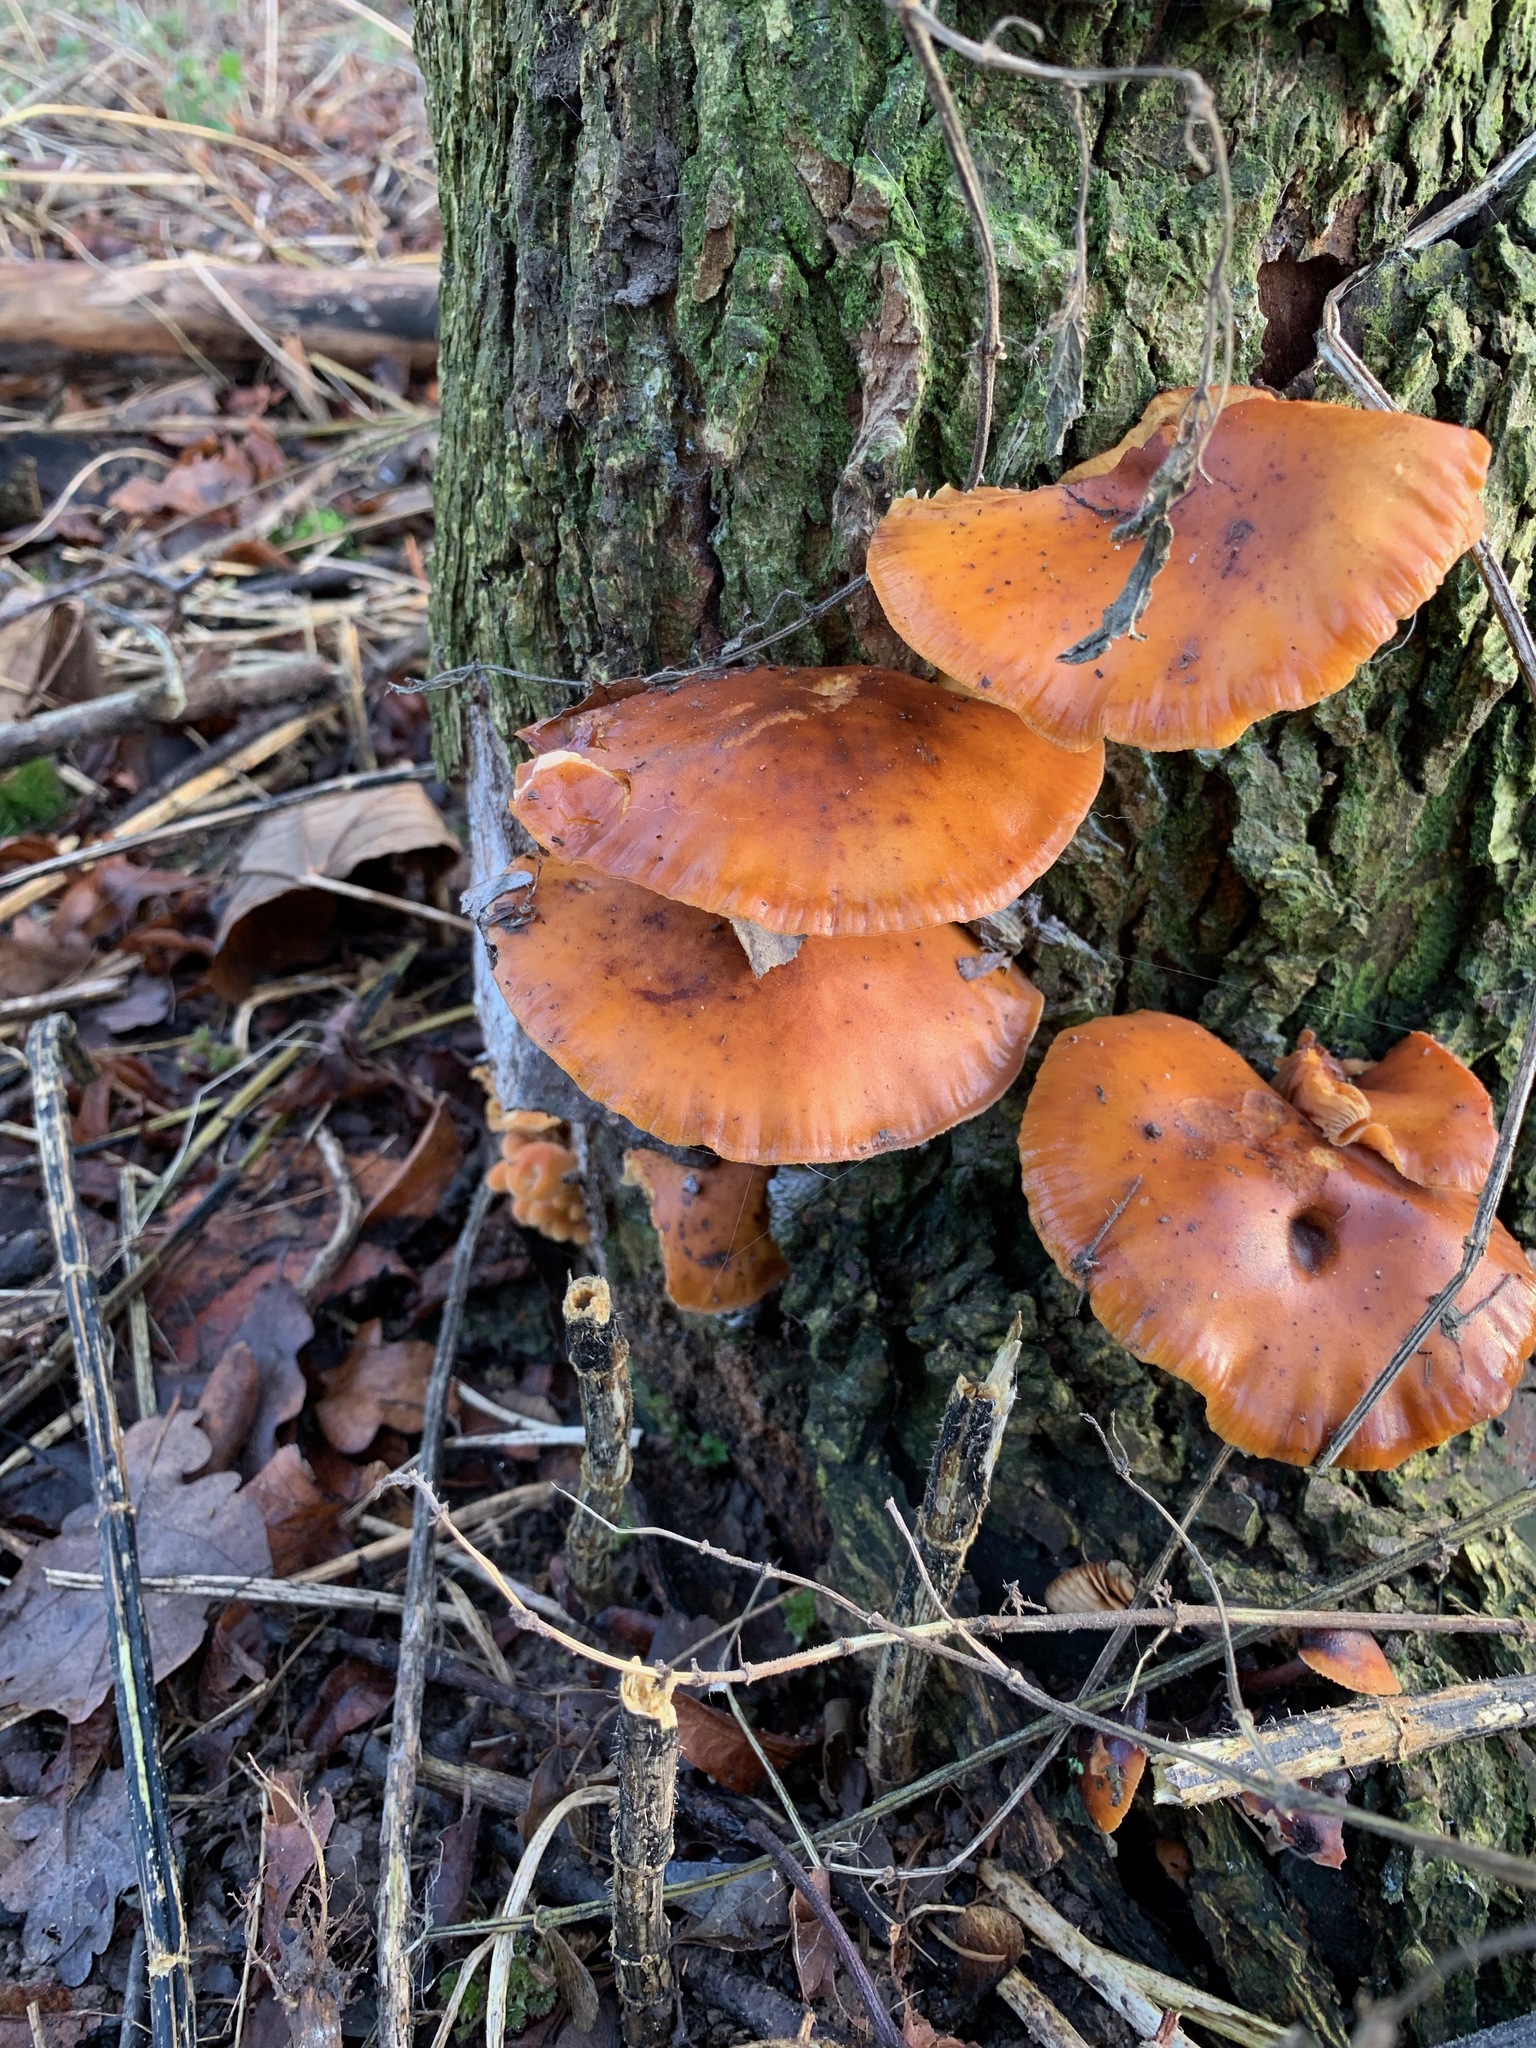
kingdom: Fungi
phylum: Basidiomycota
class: Agaricomycetes
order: Agaricales
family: Physalacriaceae
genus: Flammulina
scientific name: Flammulina
